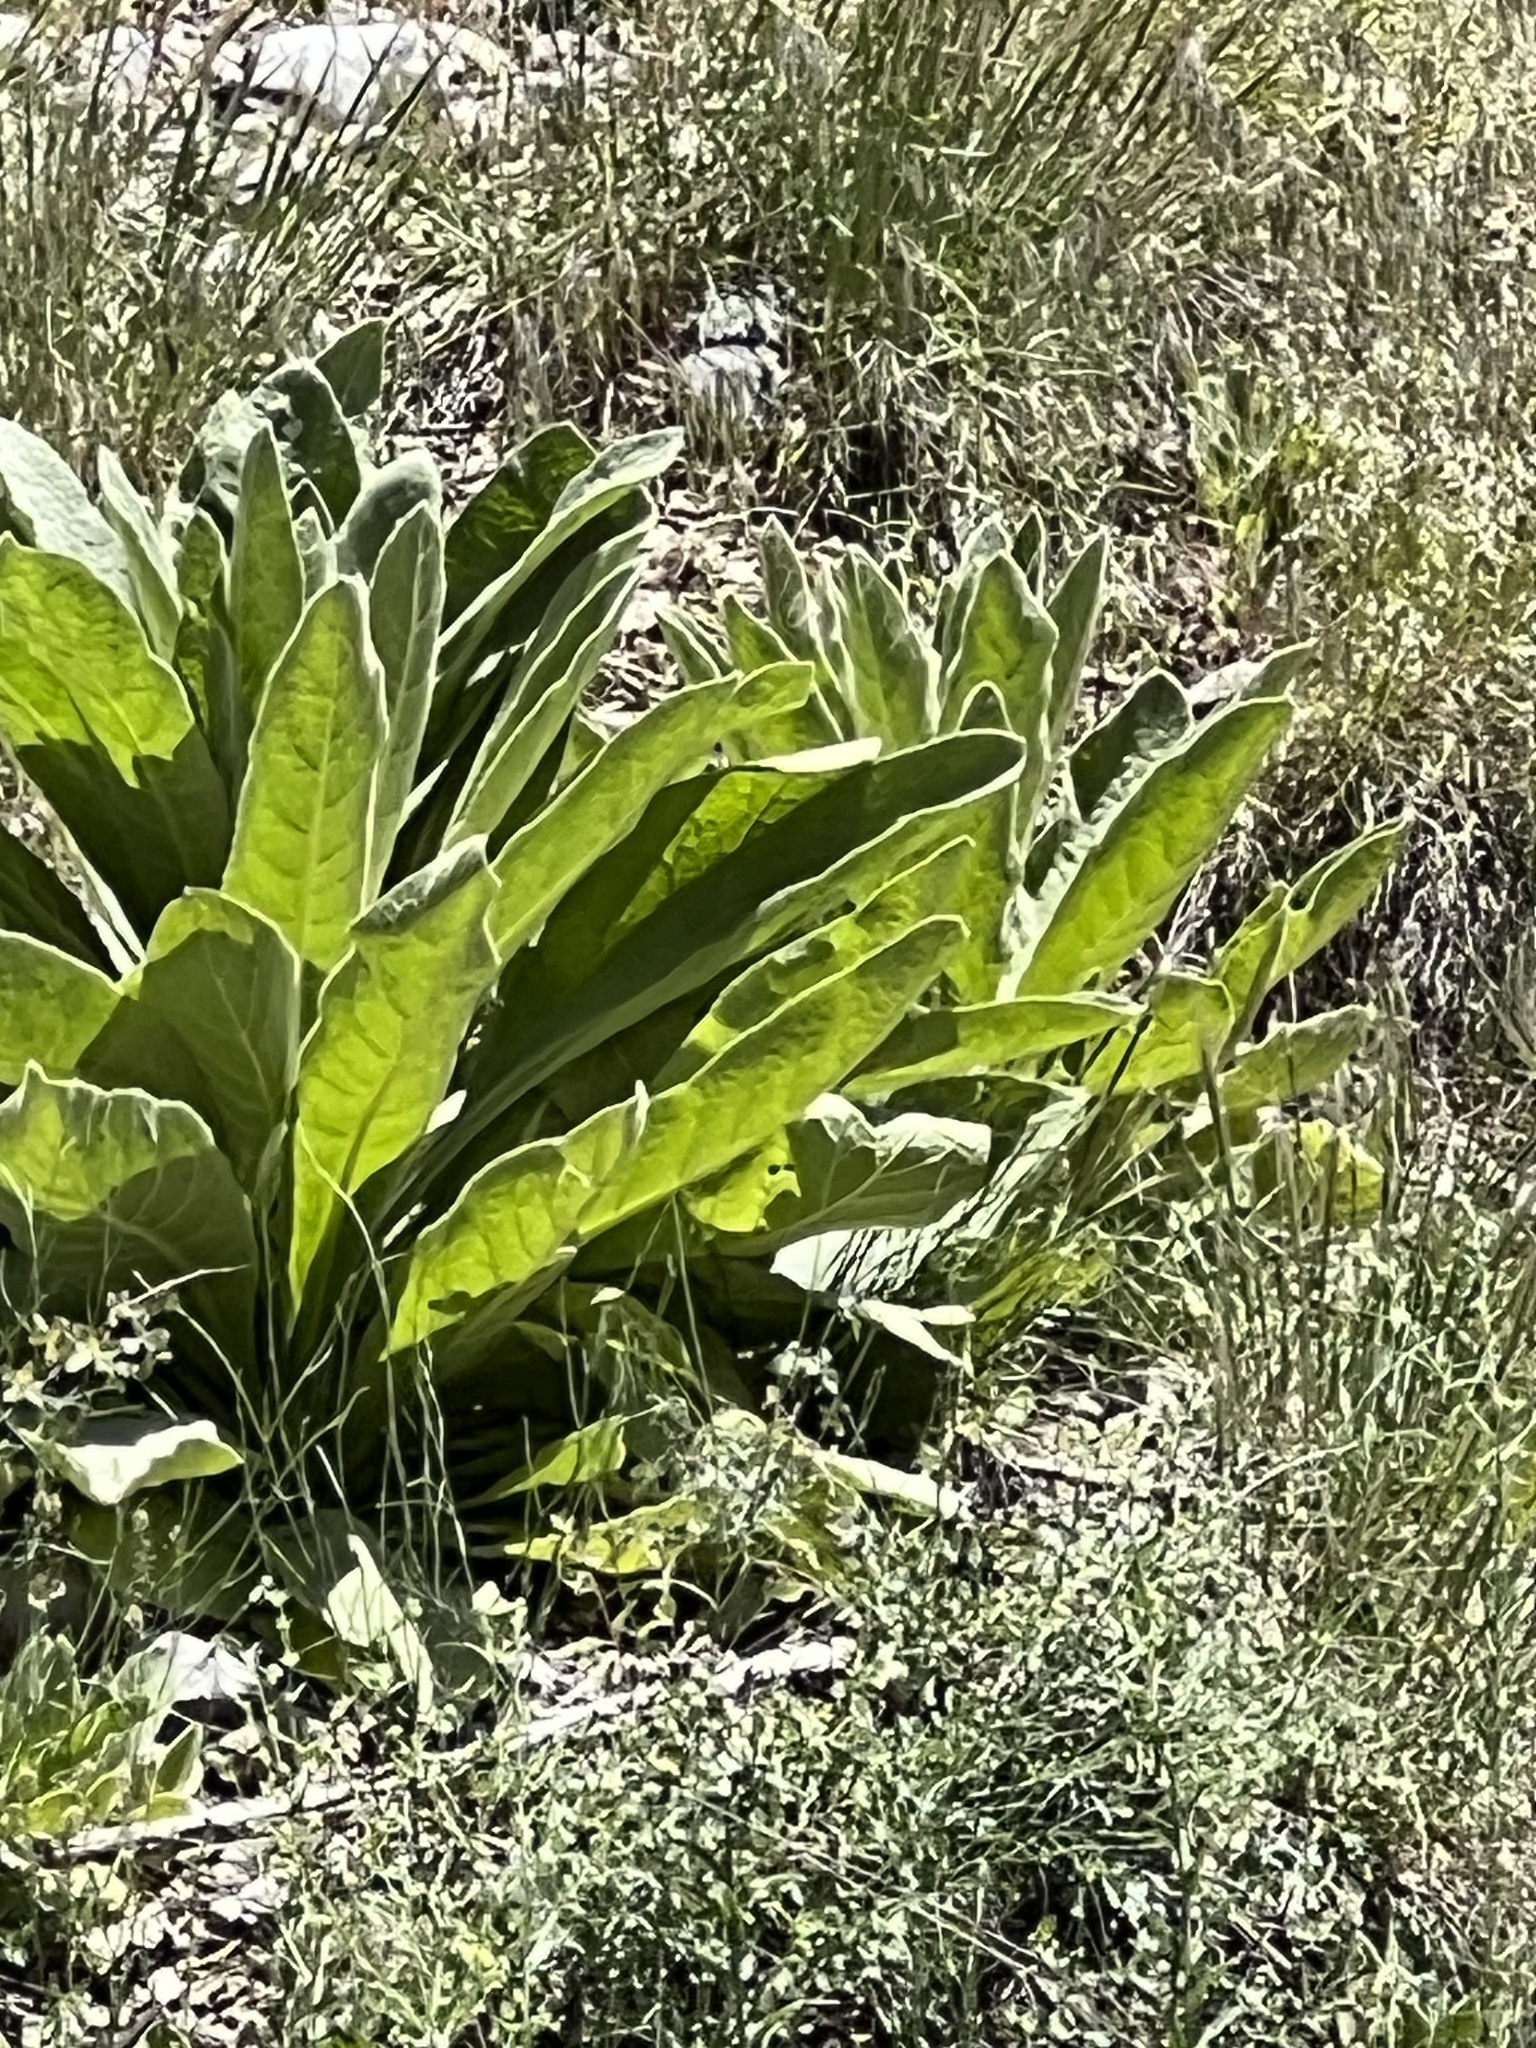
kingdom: Plantae
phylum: Tracheophyta
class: Magnoliopsida
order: Lamiales
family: Scrophulariaceae
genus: Verbascum
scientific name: Verbascum thapsus
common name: Common mullein
